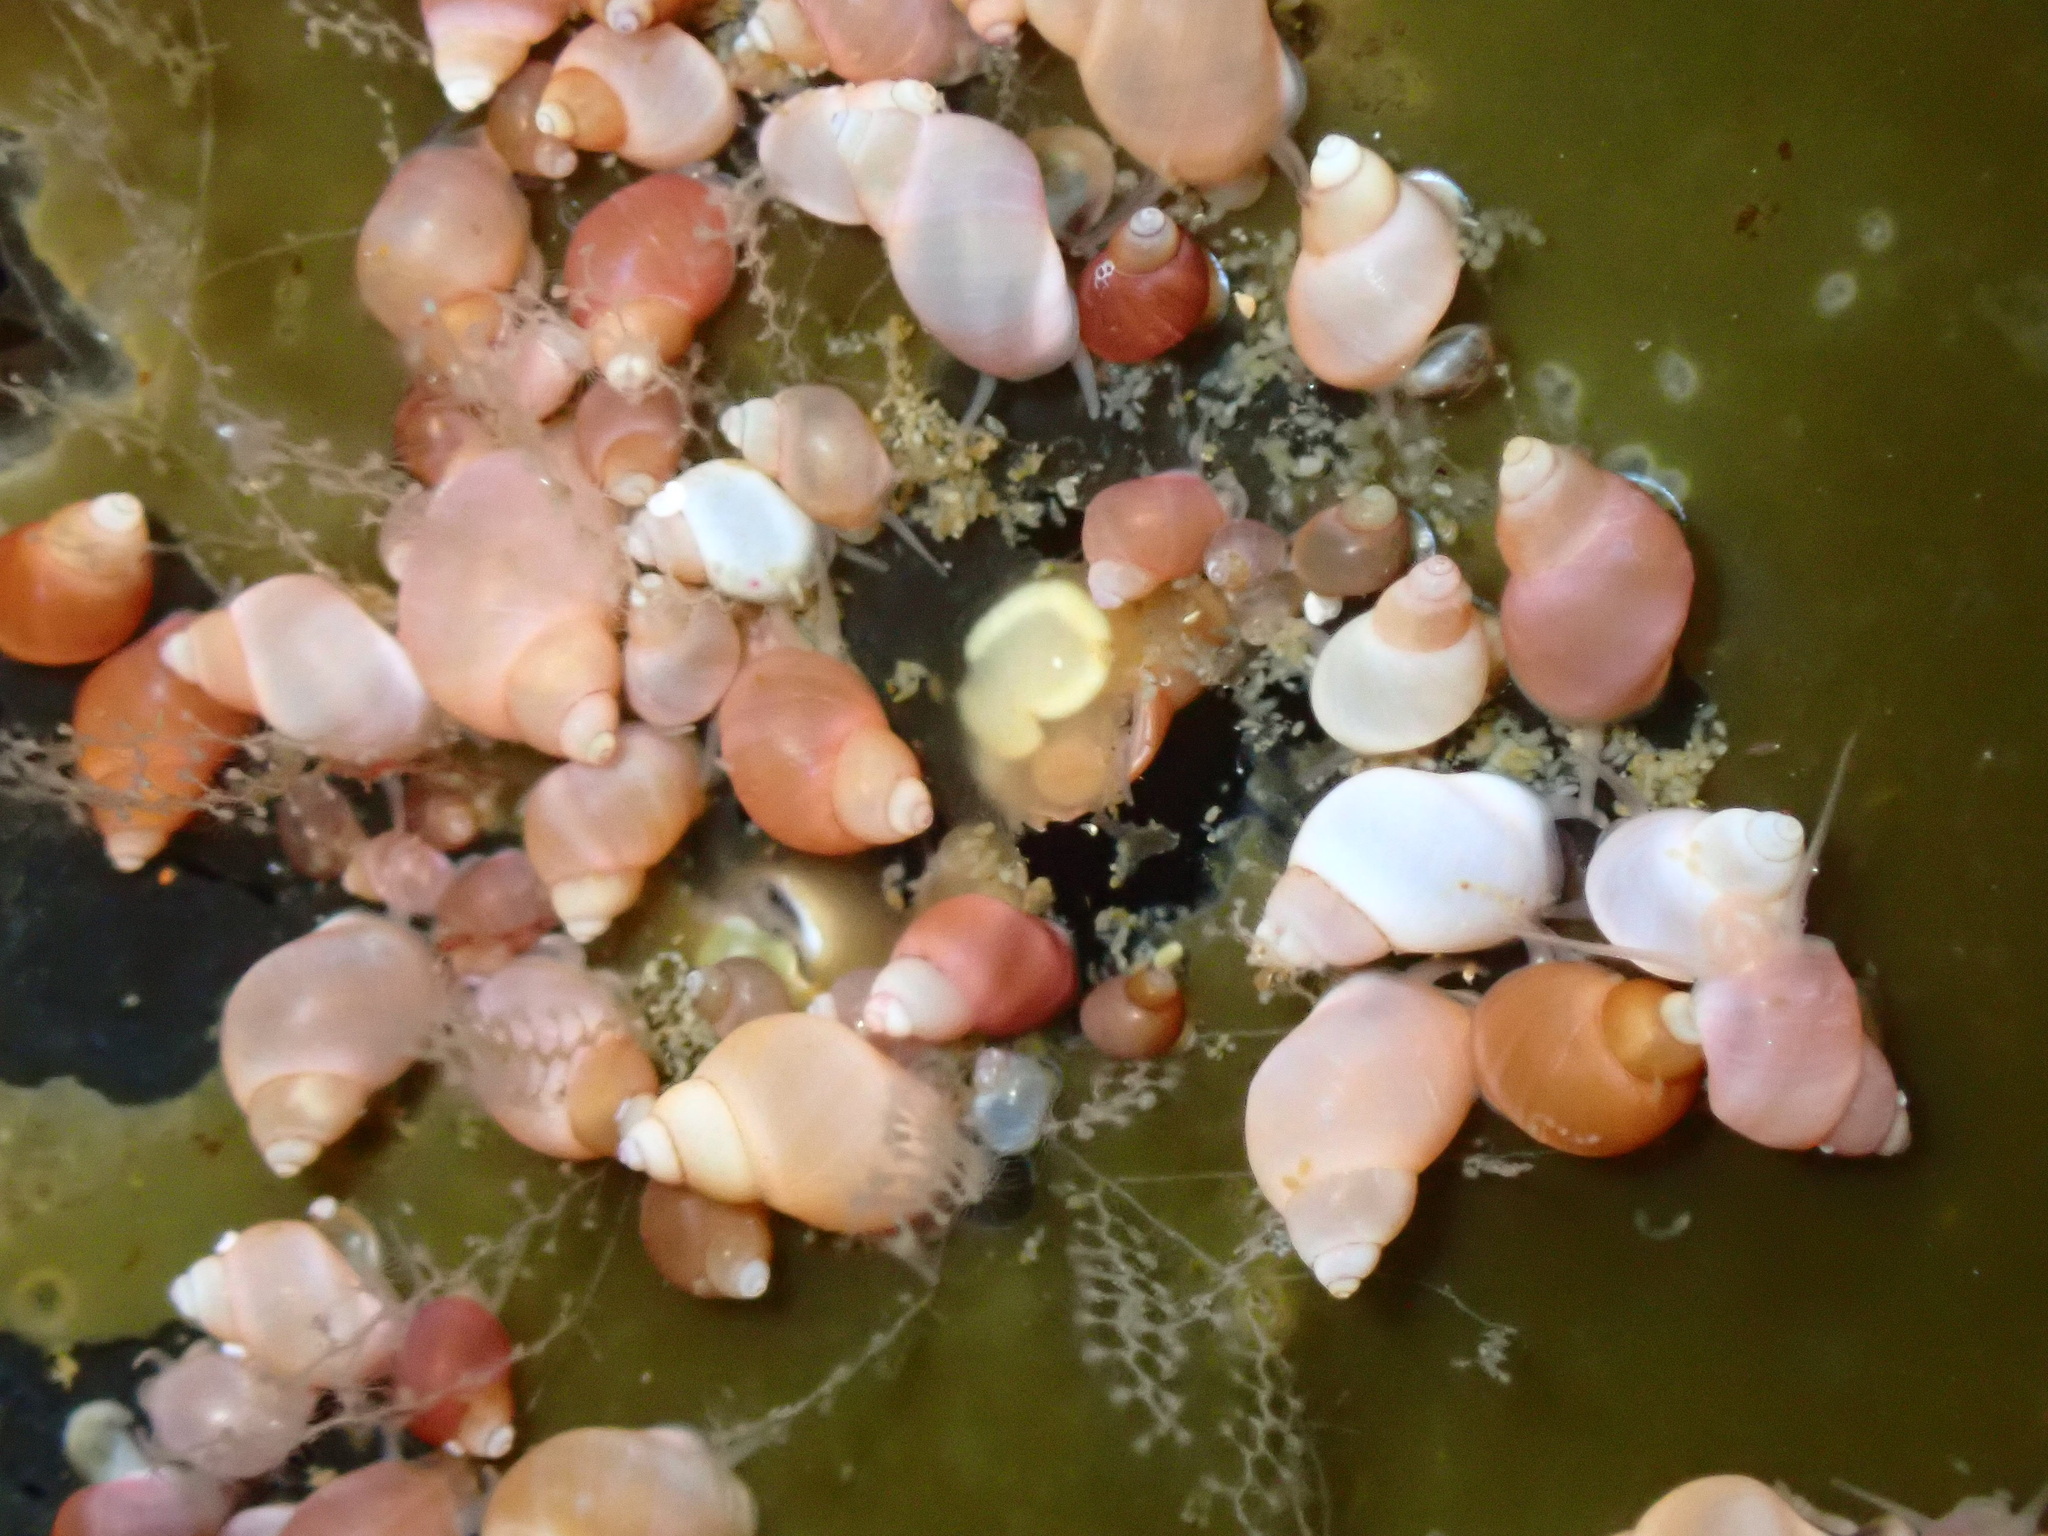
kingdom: Animalia
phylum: Mollusca
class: Gastropoda
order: Littorinimorpha
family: Littorinidae
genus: Lacuna
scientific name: Lacuna vincta
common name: Banded chink shell
